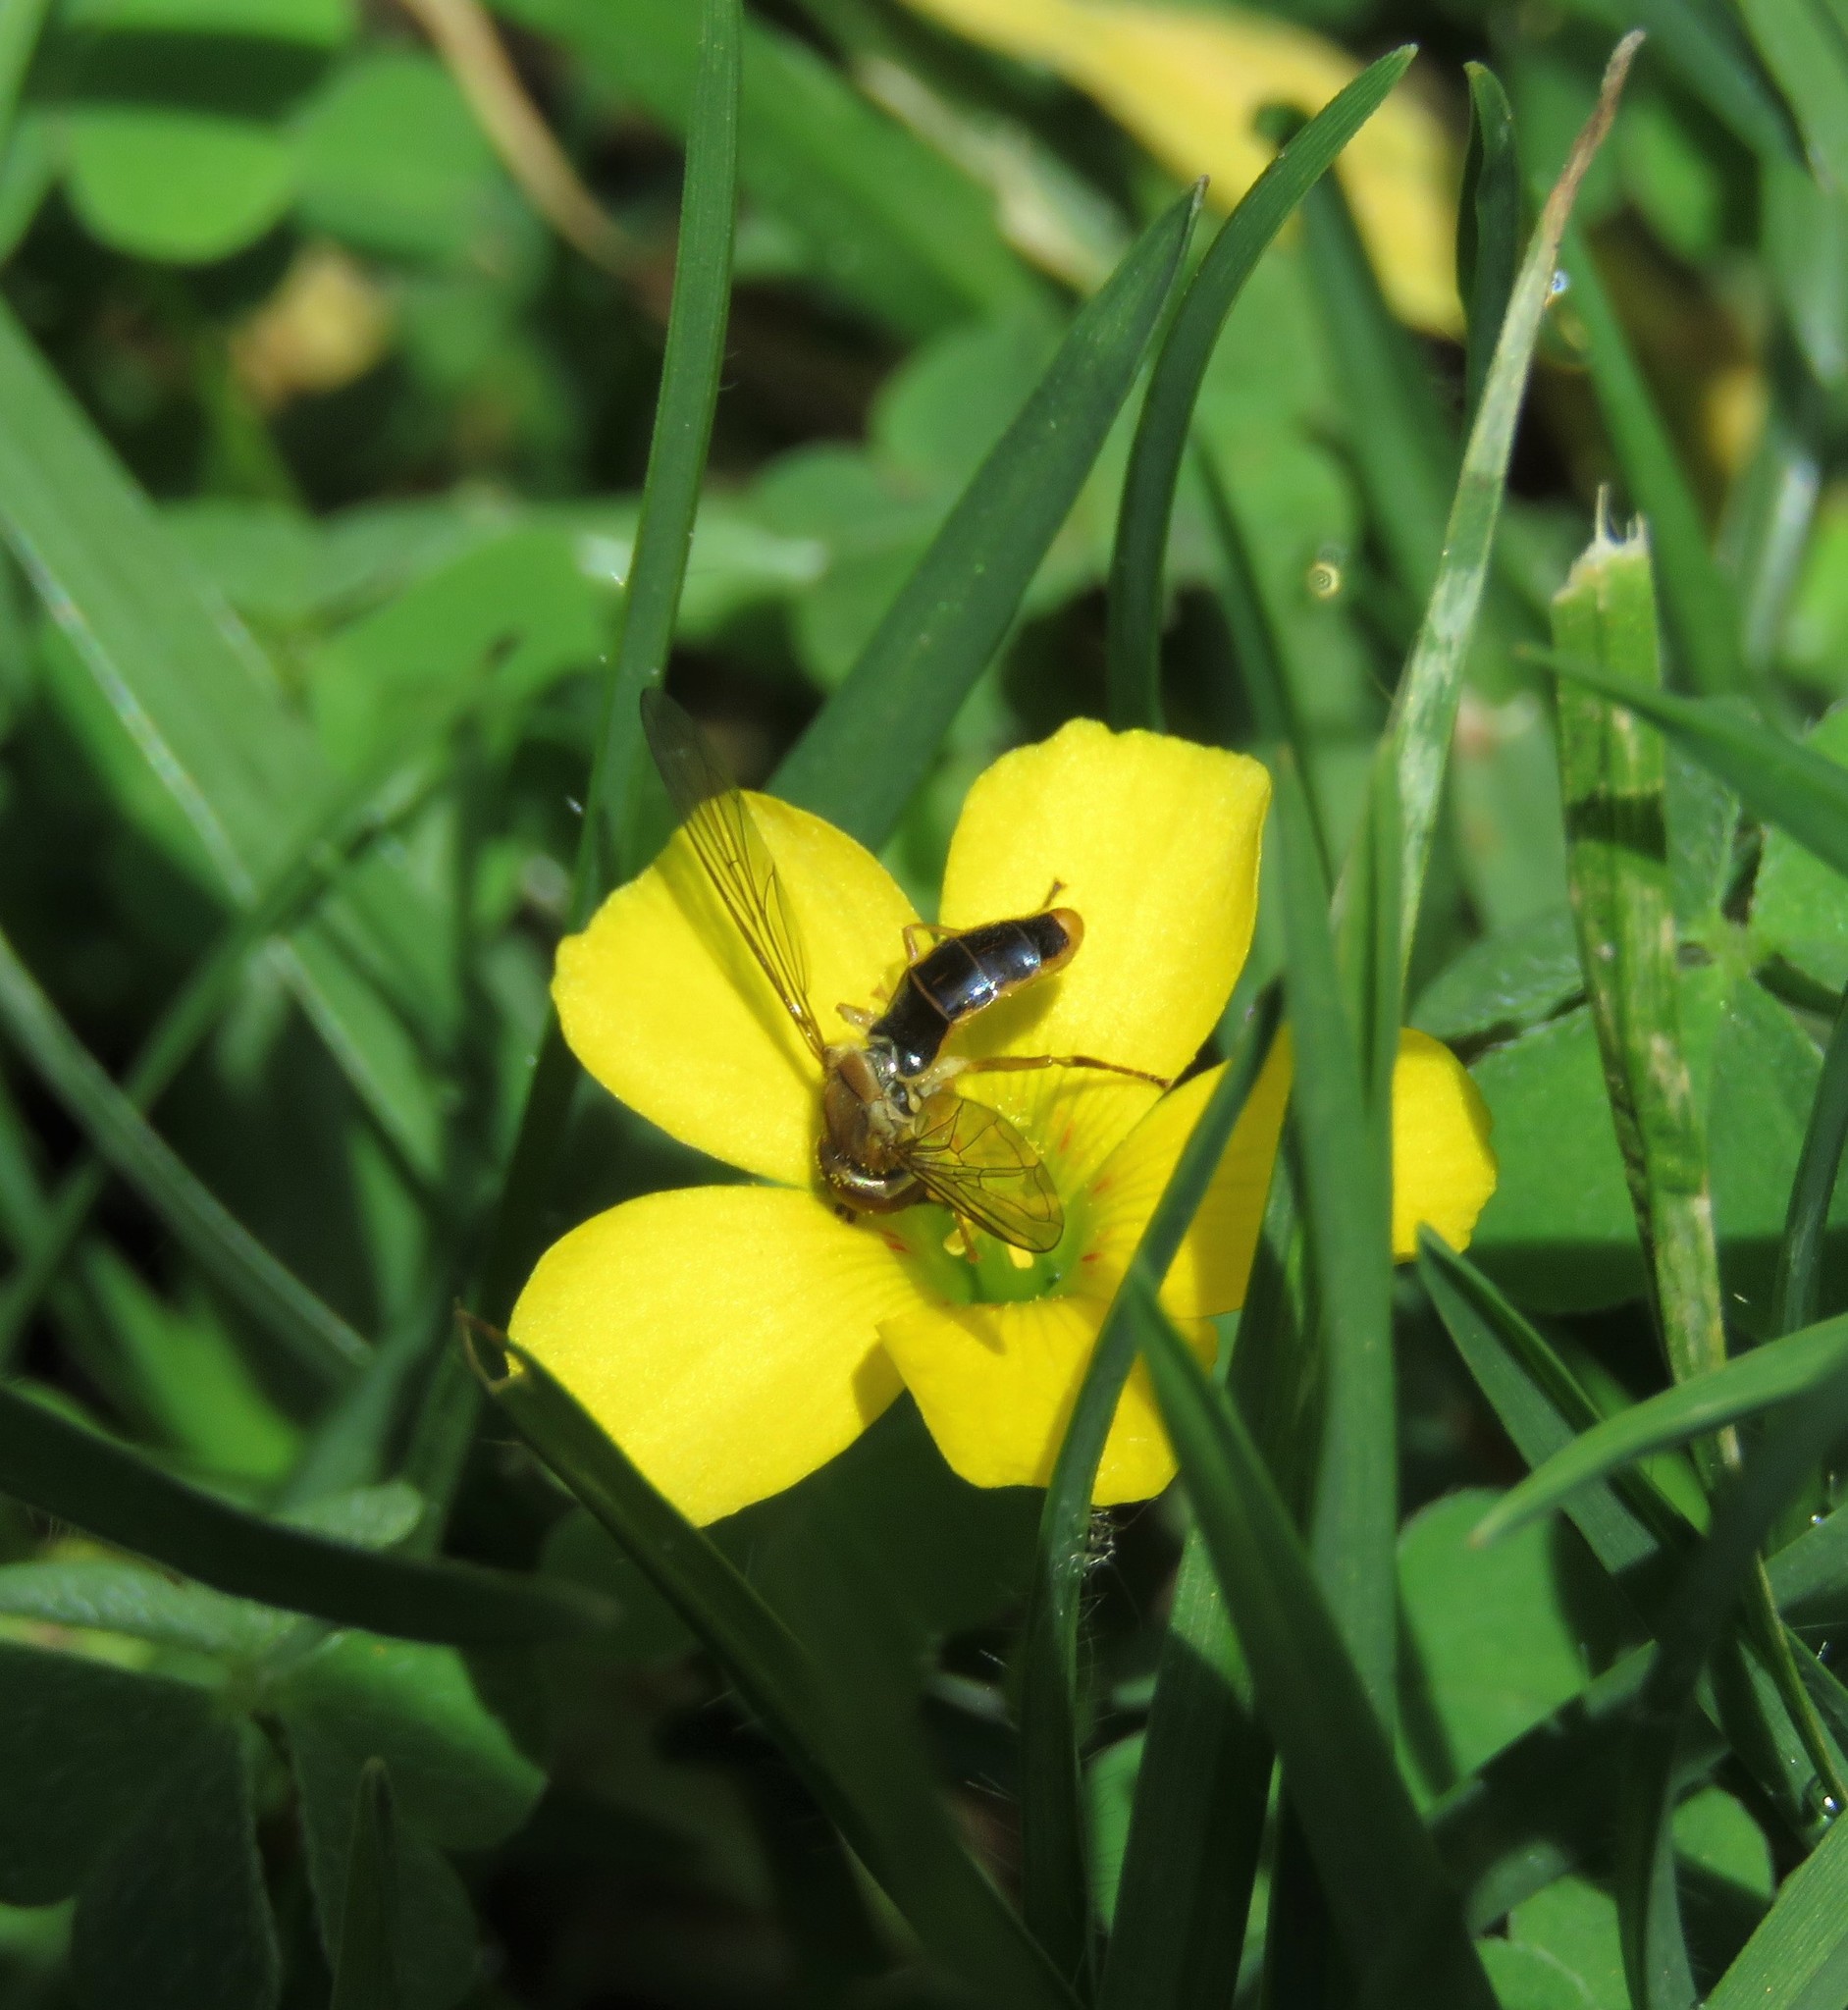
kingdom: Plantae
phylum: Tracheophyta
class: Magnoliopsida
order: Oxalidales
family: Oxalidaceae
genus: Oxalis
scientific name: Oxalis corniculata
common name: Procumbent yellow-sorrel
